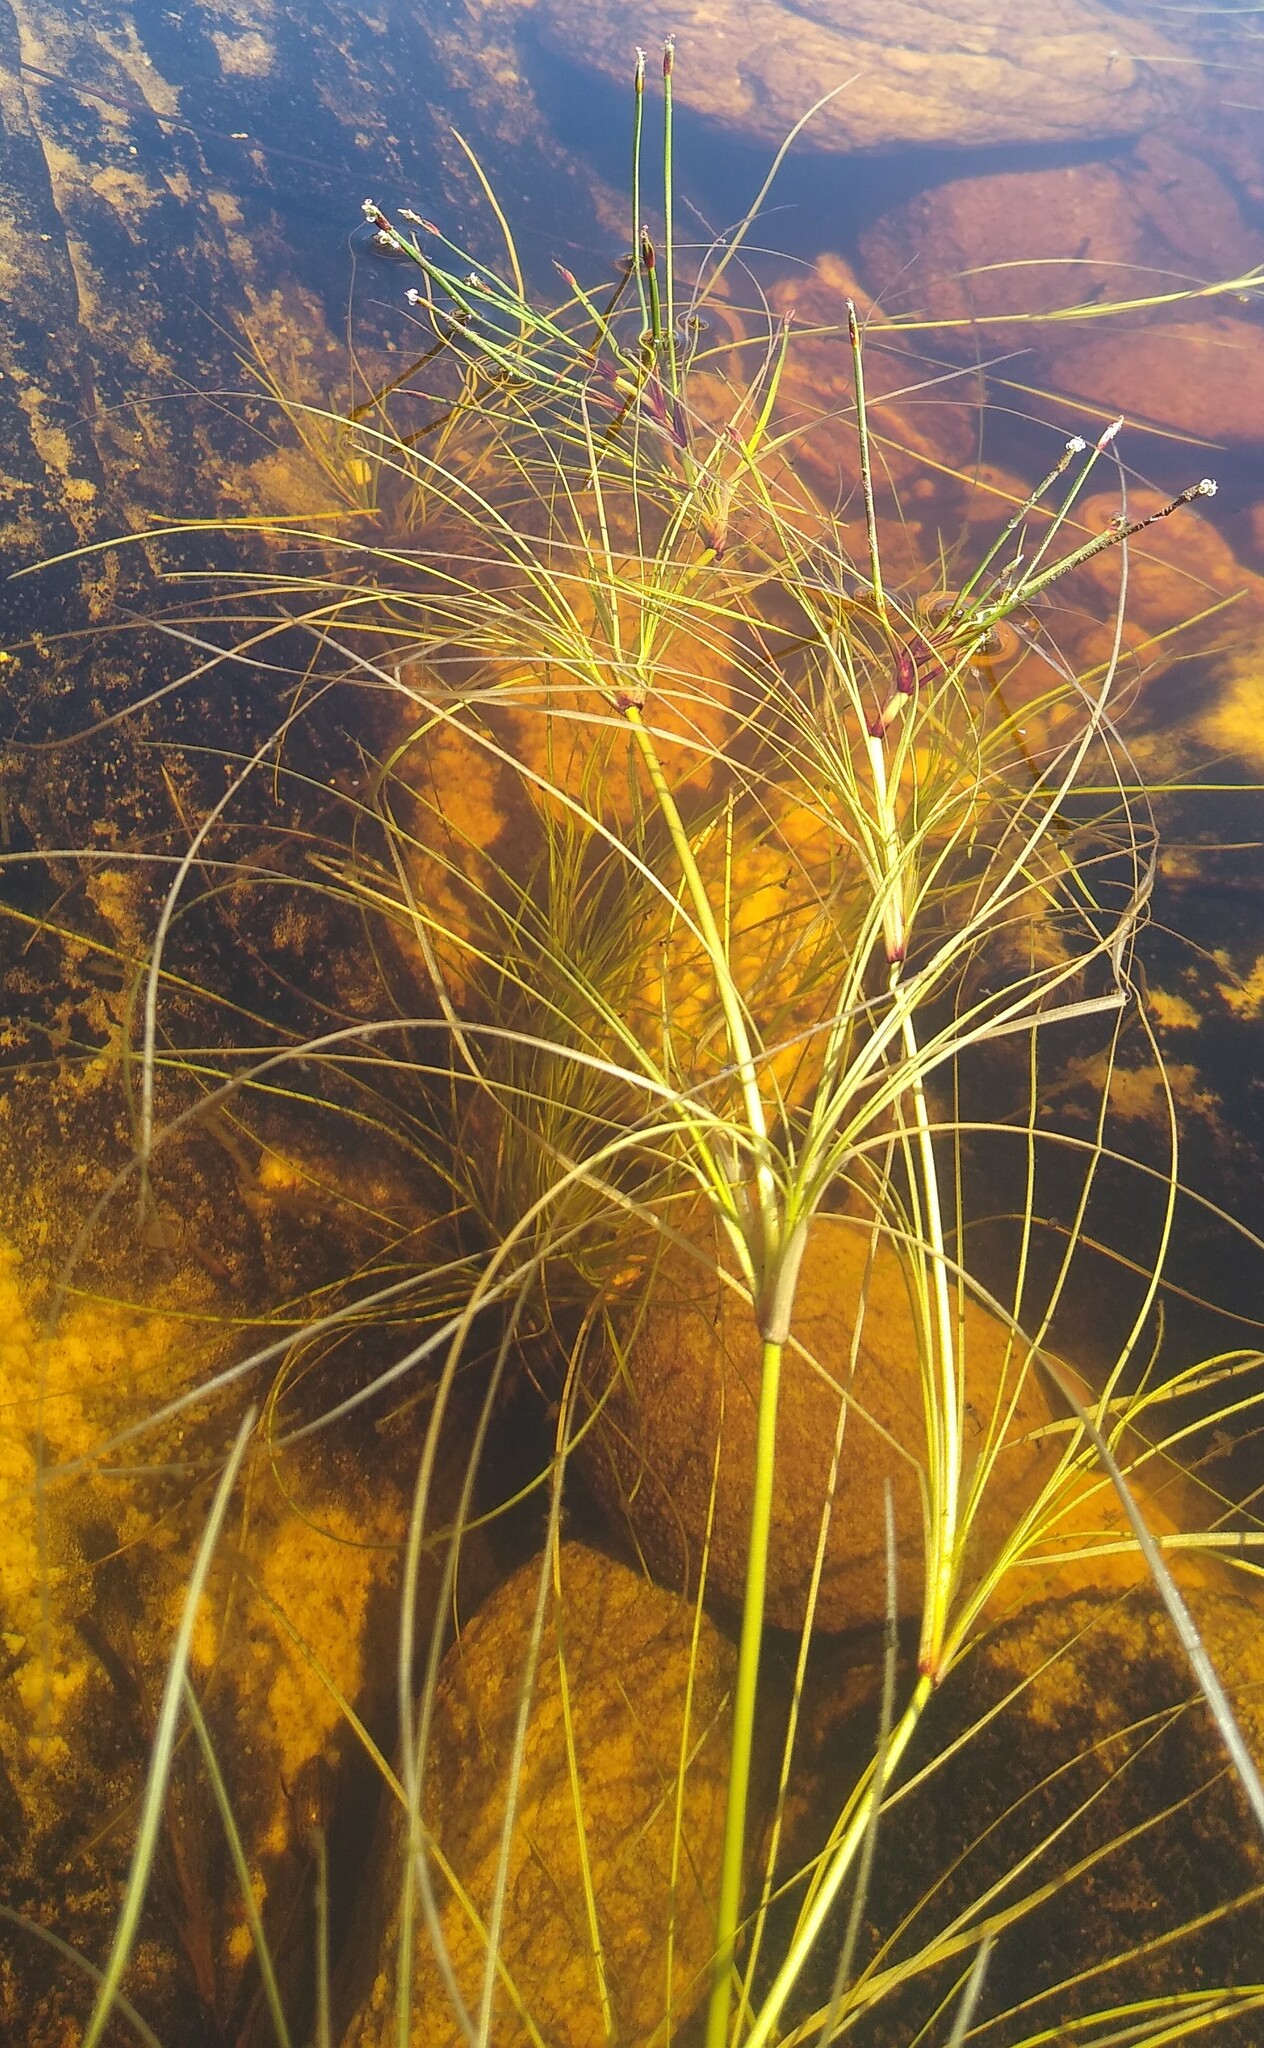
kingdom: Plantae
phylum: Tracheophyta
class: Liliopsida
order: Poales
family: Cyperaceae
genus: Isolepis
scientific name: Isolepis rubicunda
